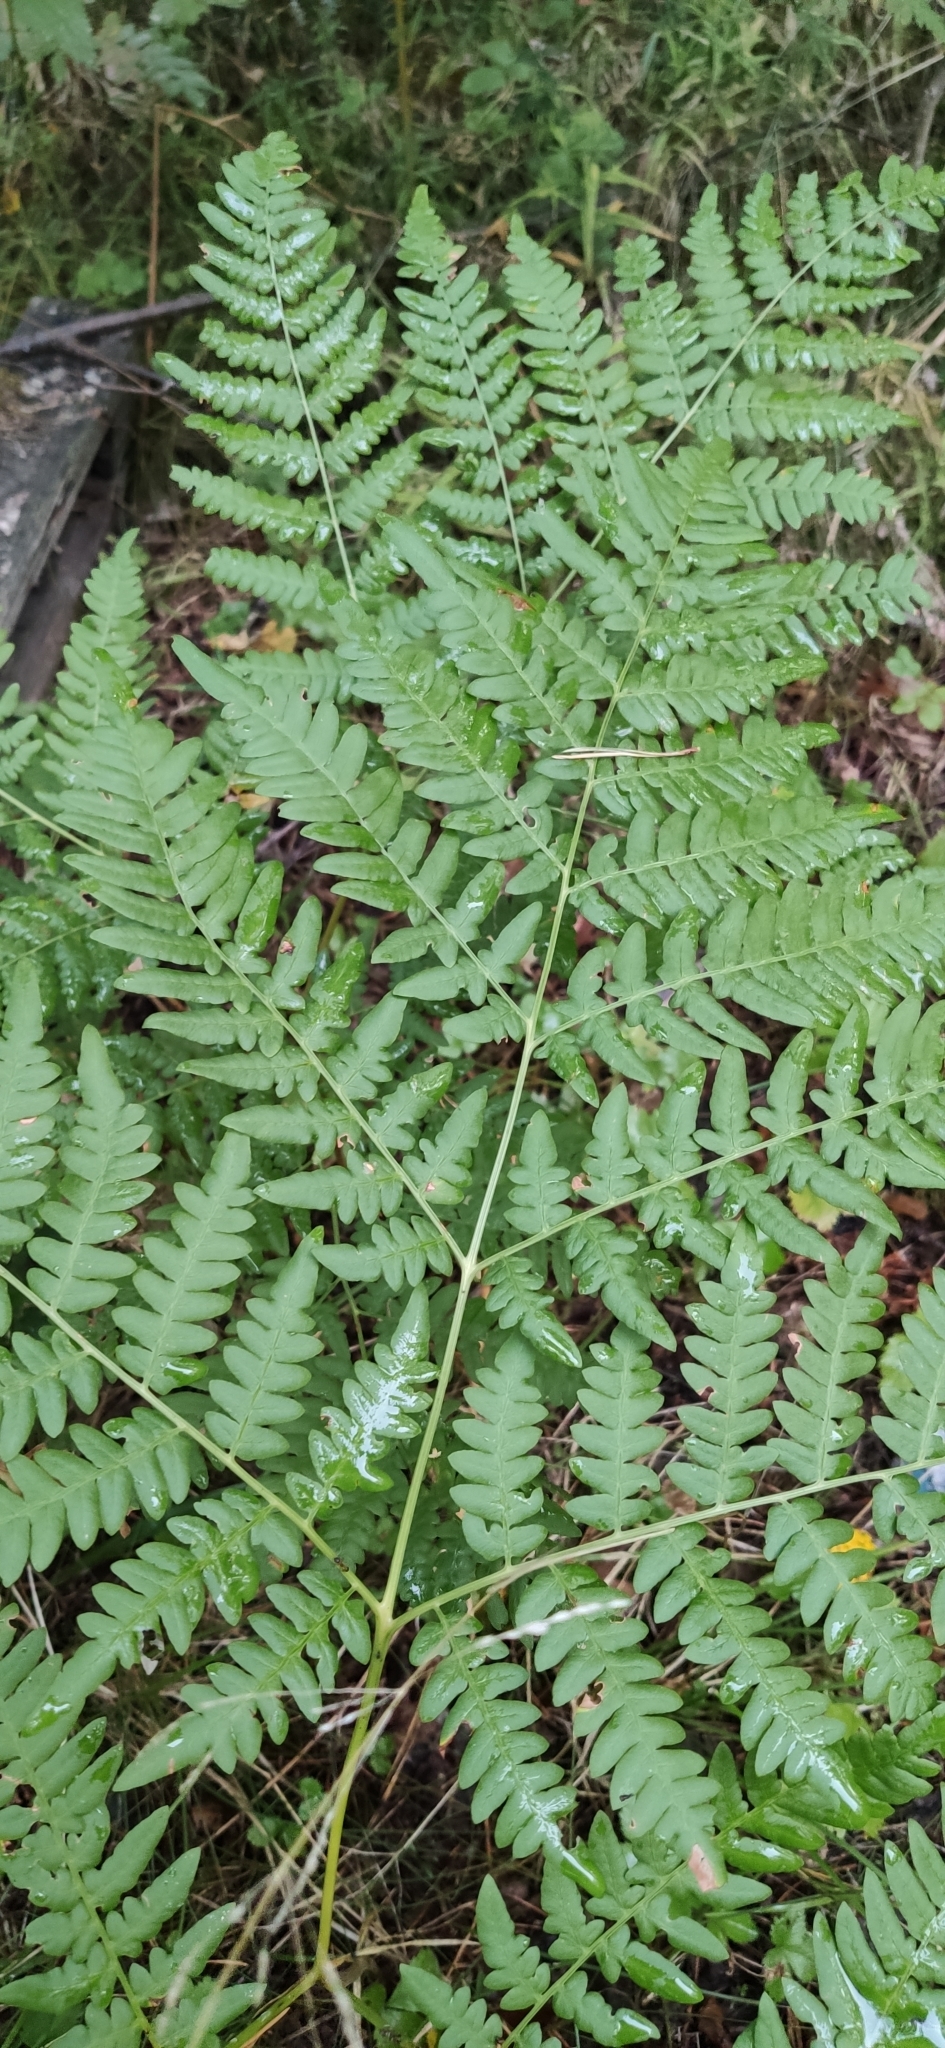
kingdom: Plantae
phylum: Tracheophyta
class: Polypodiopsida
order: Polypodiales
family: Dennstaedtiaceae
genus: Pteridium
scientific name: Pteridium aquilinum
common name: Bracken
